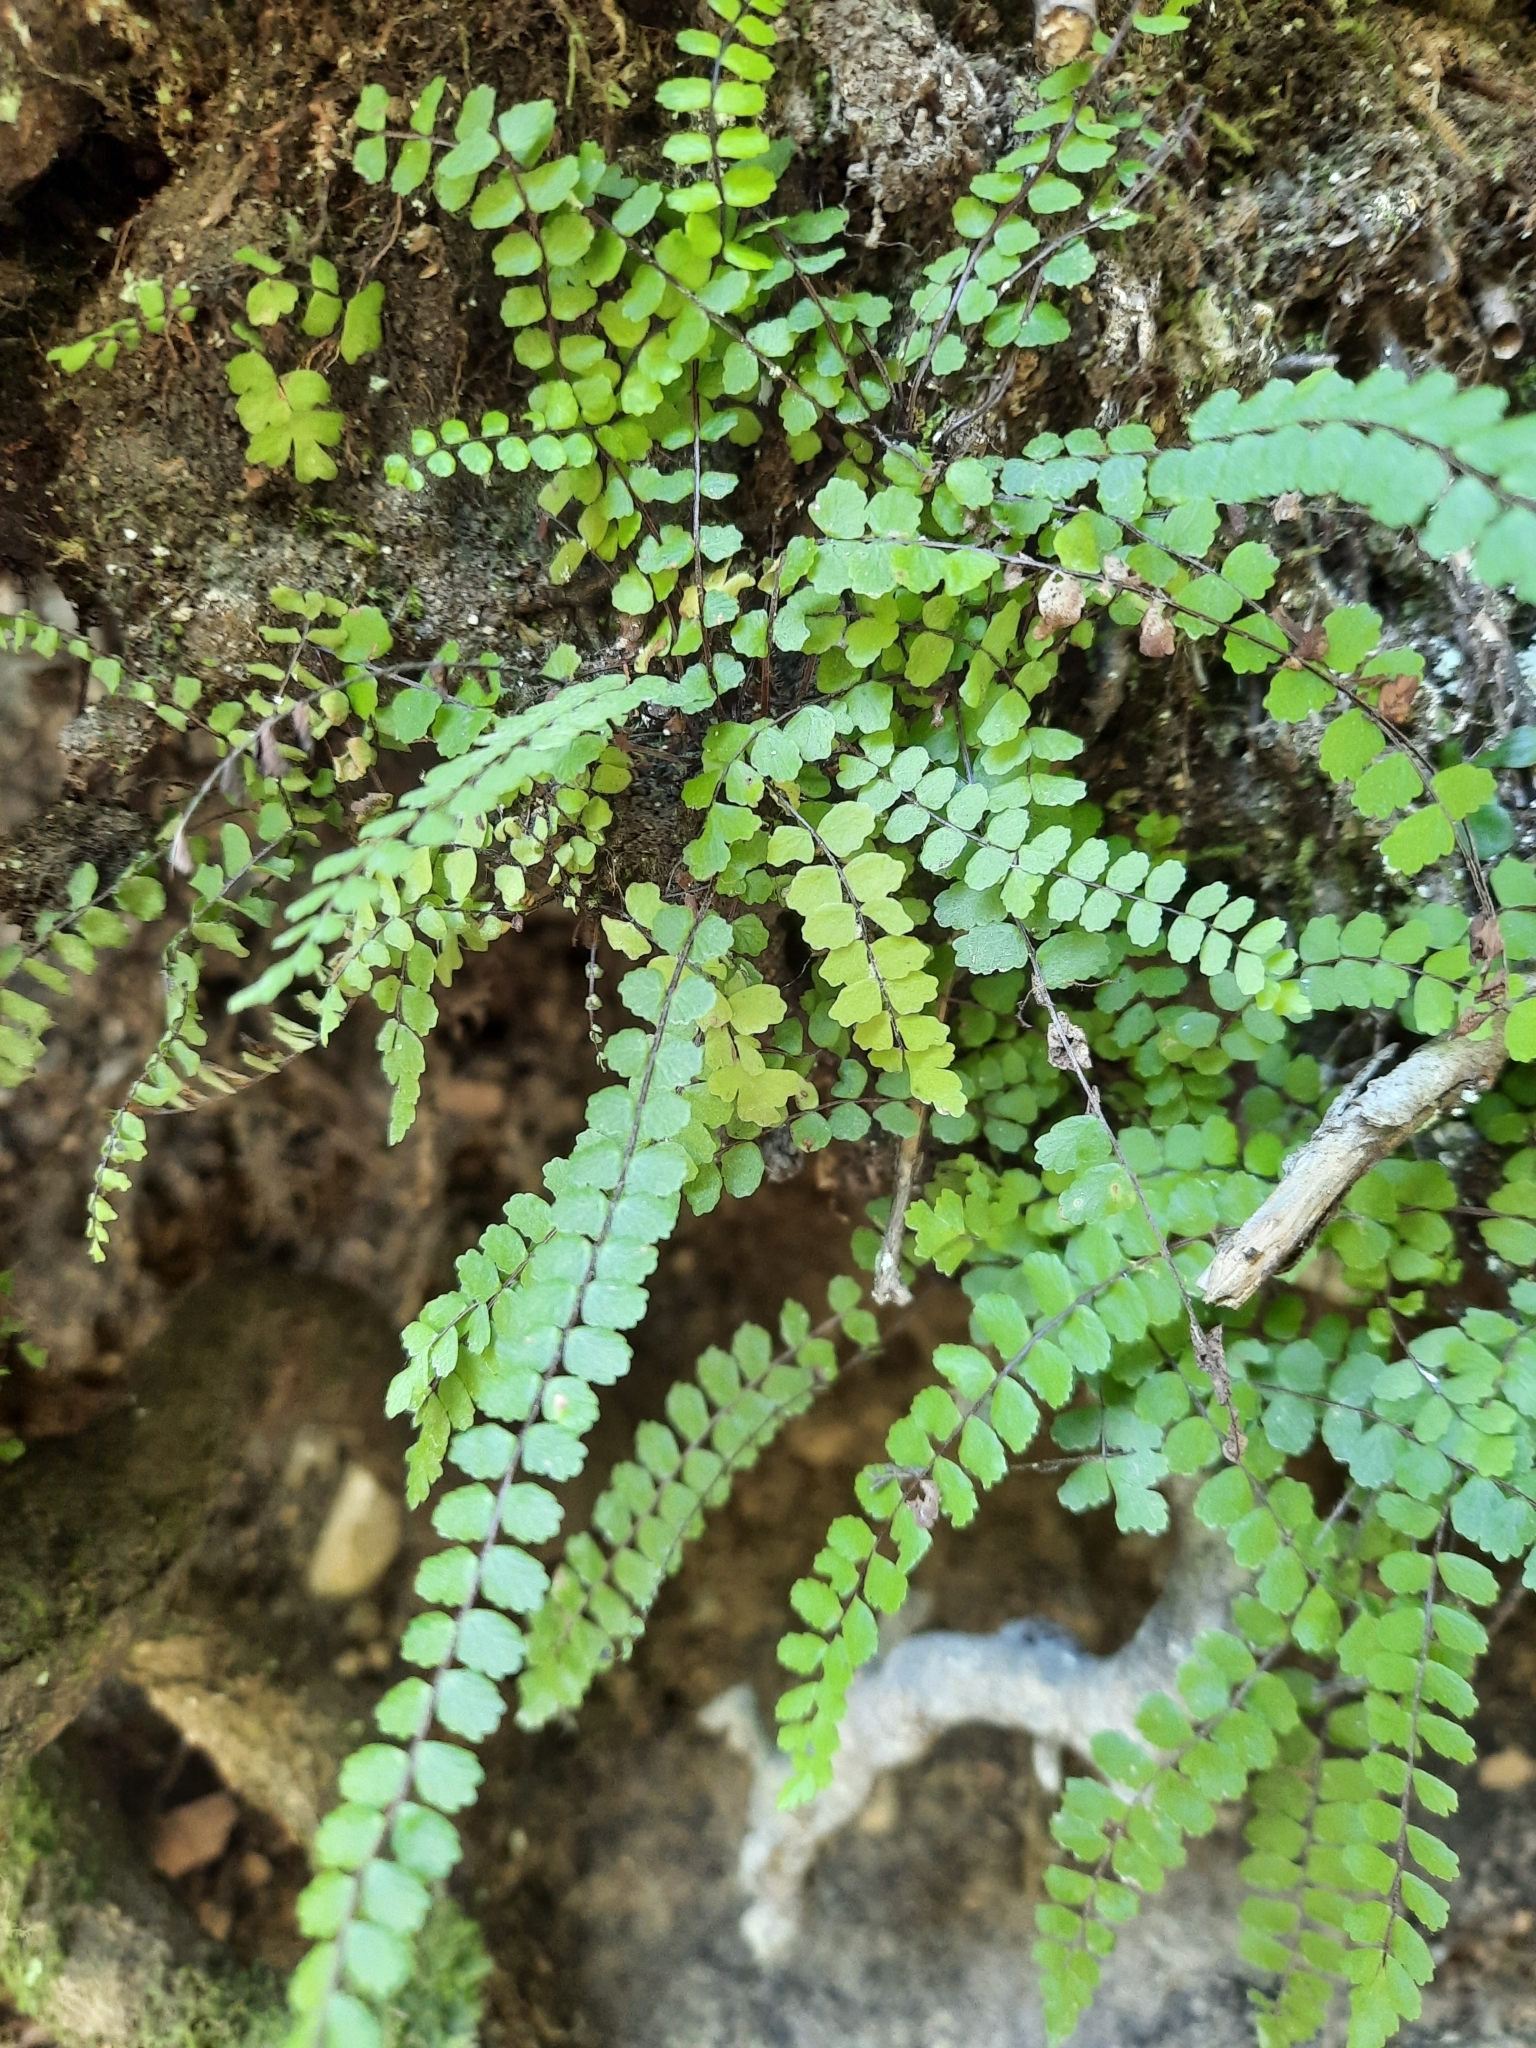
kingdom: Plantae
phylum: Tracheophyta
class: Polypodiopsida
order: Polypodiales
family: Aspleniaceae
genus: Asplenium
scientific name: Asplenium trichomanes
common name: Maidenhair spleenwort
